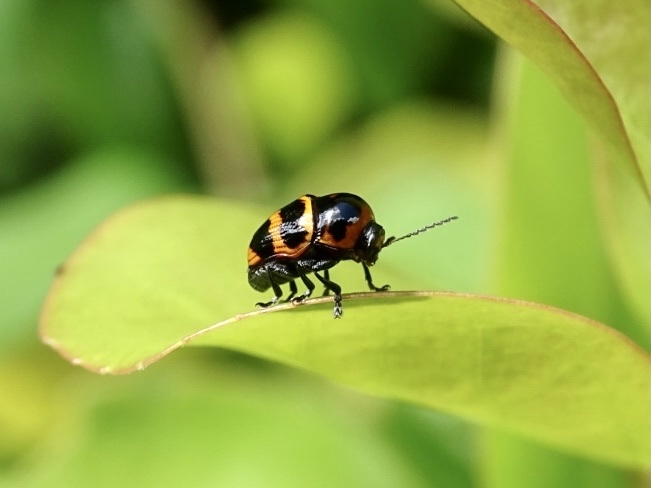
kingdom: Animalia
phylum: Arthropoda
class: Insecta
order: Coleoptera
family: Chrysomelidae
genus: Cryptocephalus
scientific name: Cryptocephalus trifasciatus
